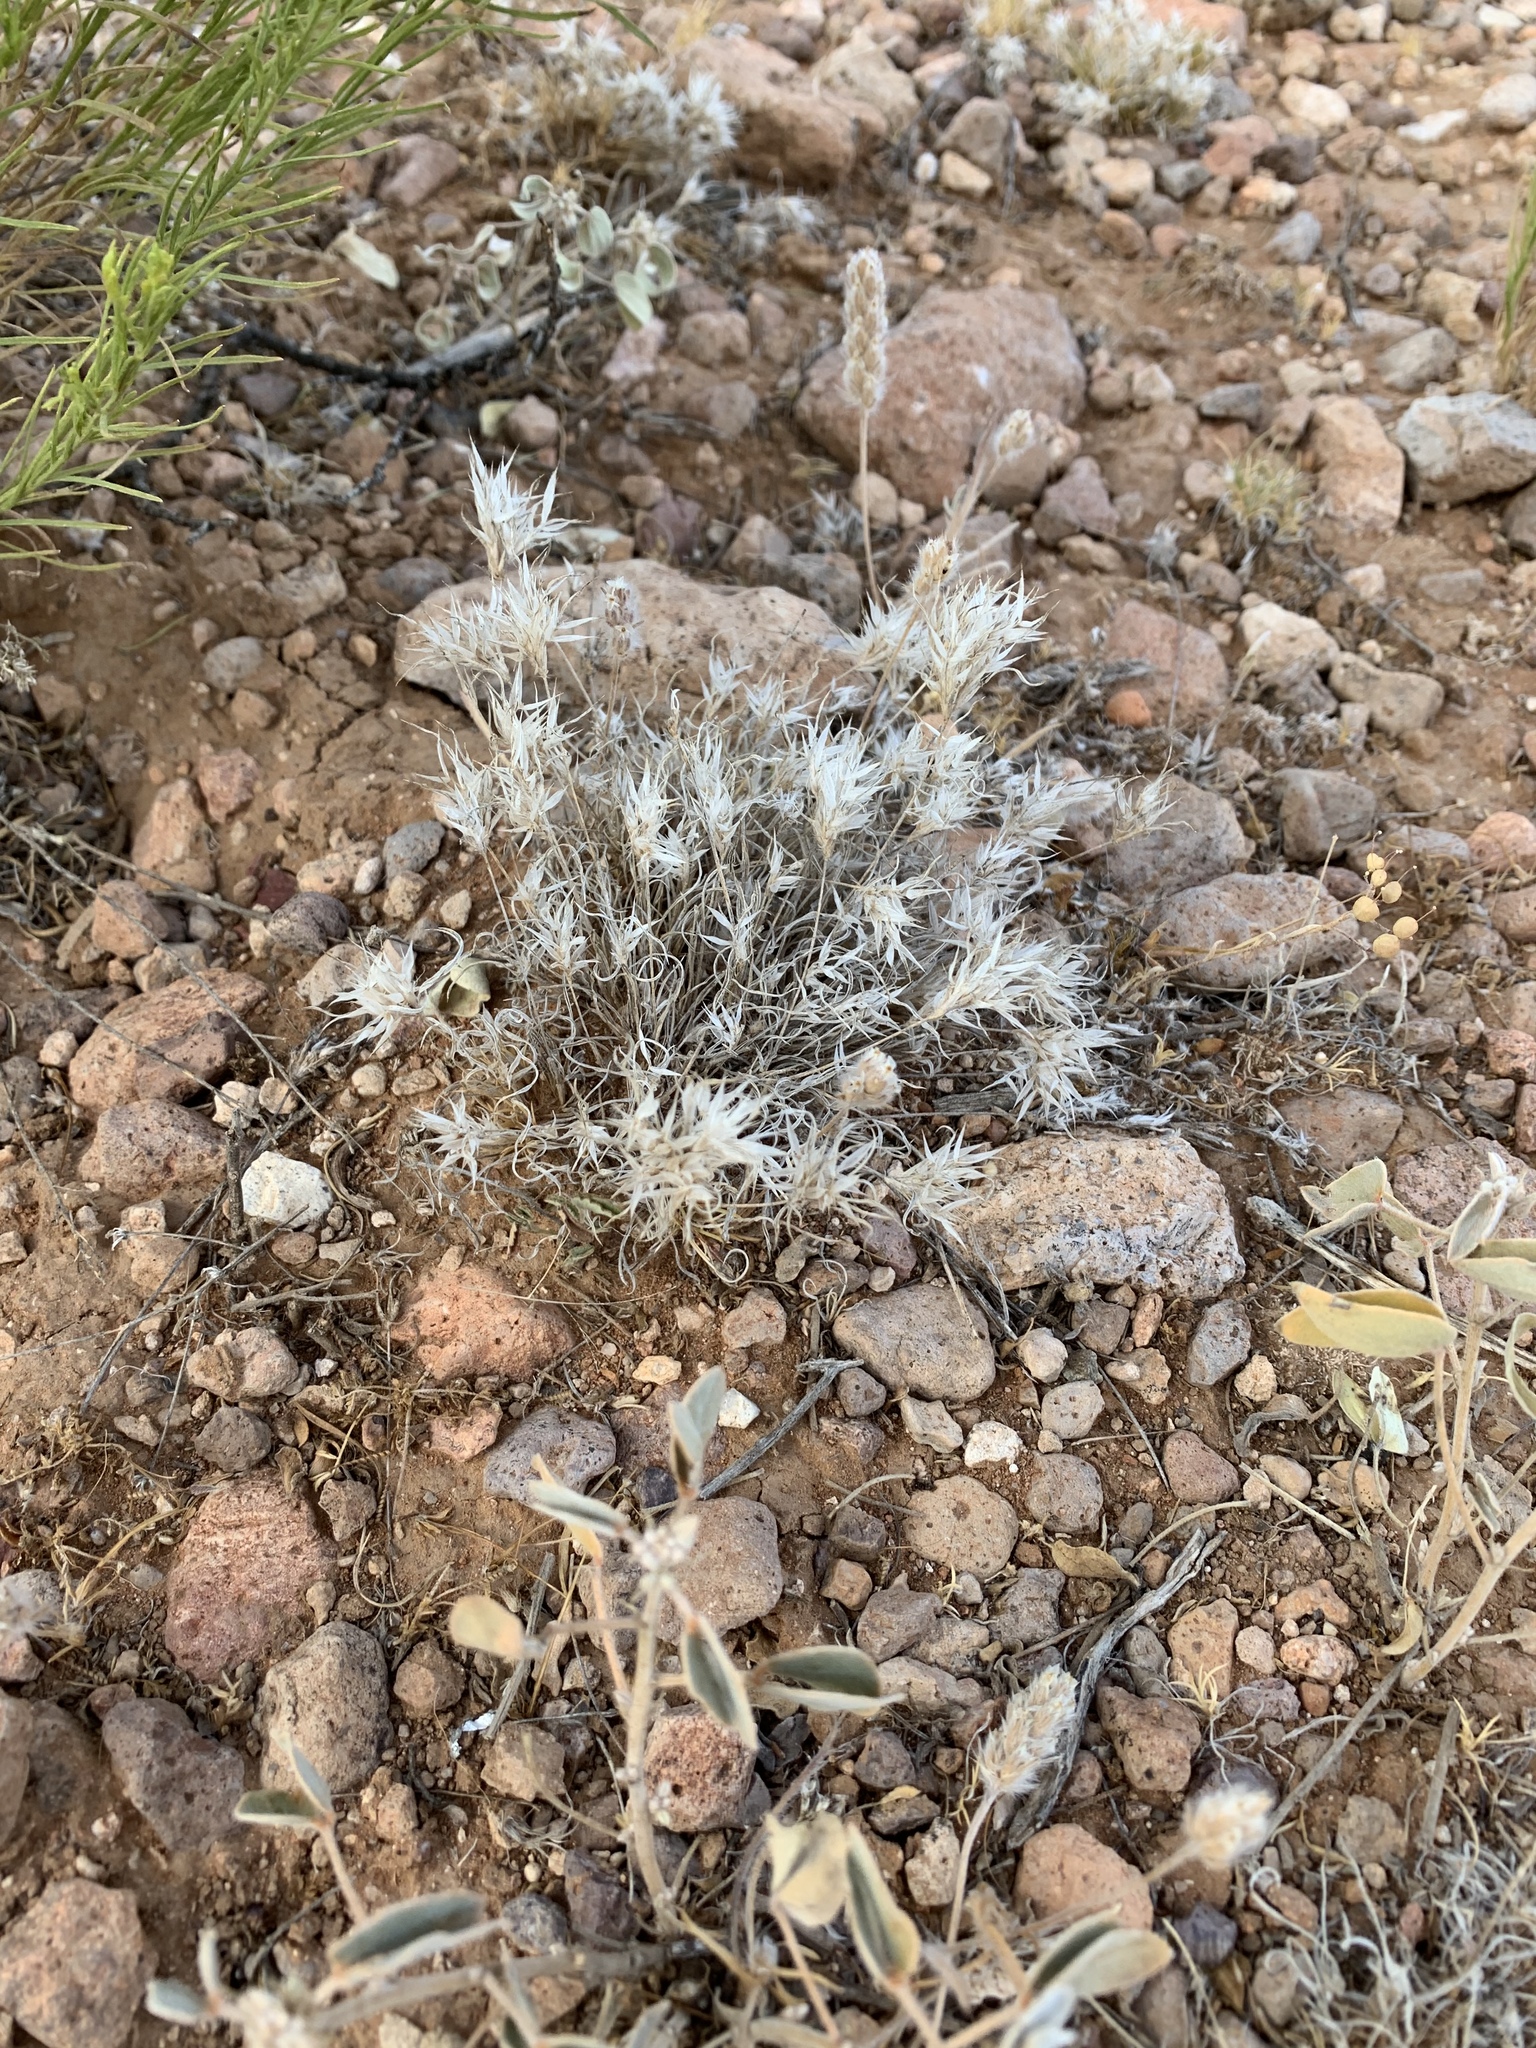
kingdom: Plantae
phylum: Tracheophyta
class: Liliopsida
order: Poales
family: Poaceae
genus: Dasyochloa
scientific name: Dasyochloa pulchella
